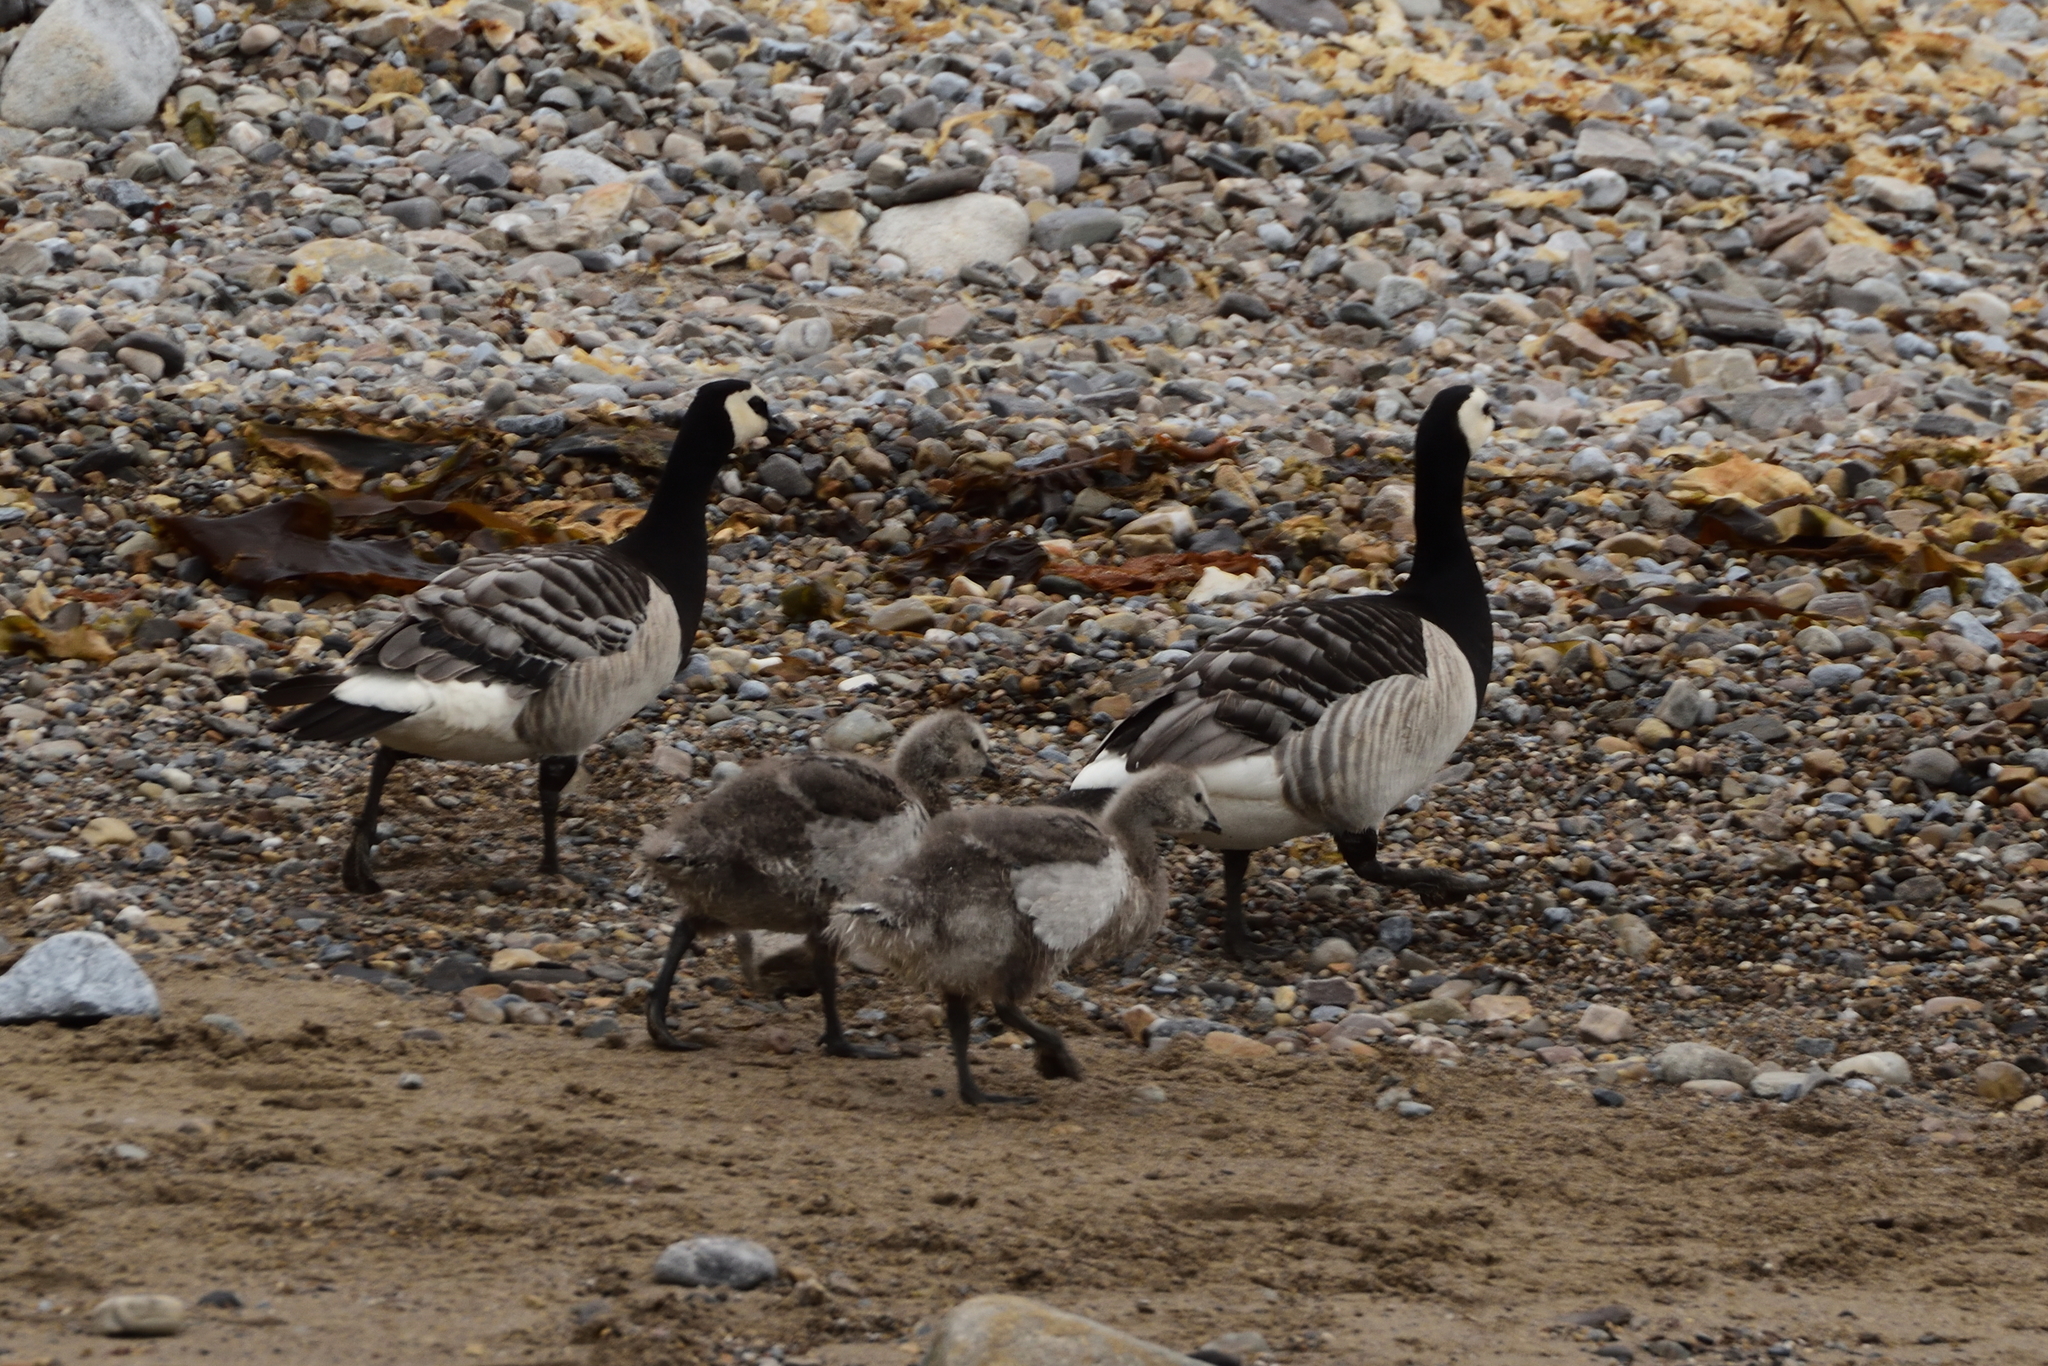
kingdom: Animalia
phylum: Chordata
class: Aves
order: Anseriformes
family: Anatidae
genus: Branta
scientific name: Branta leucopsis
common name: Barnacle goose
